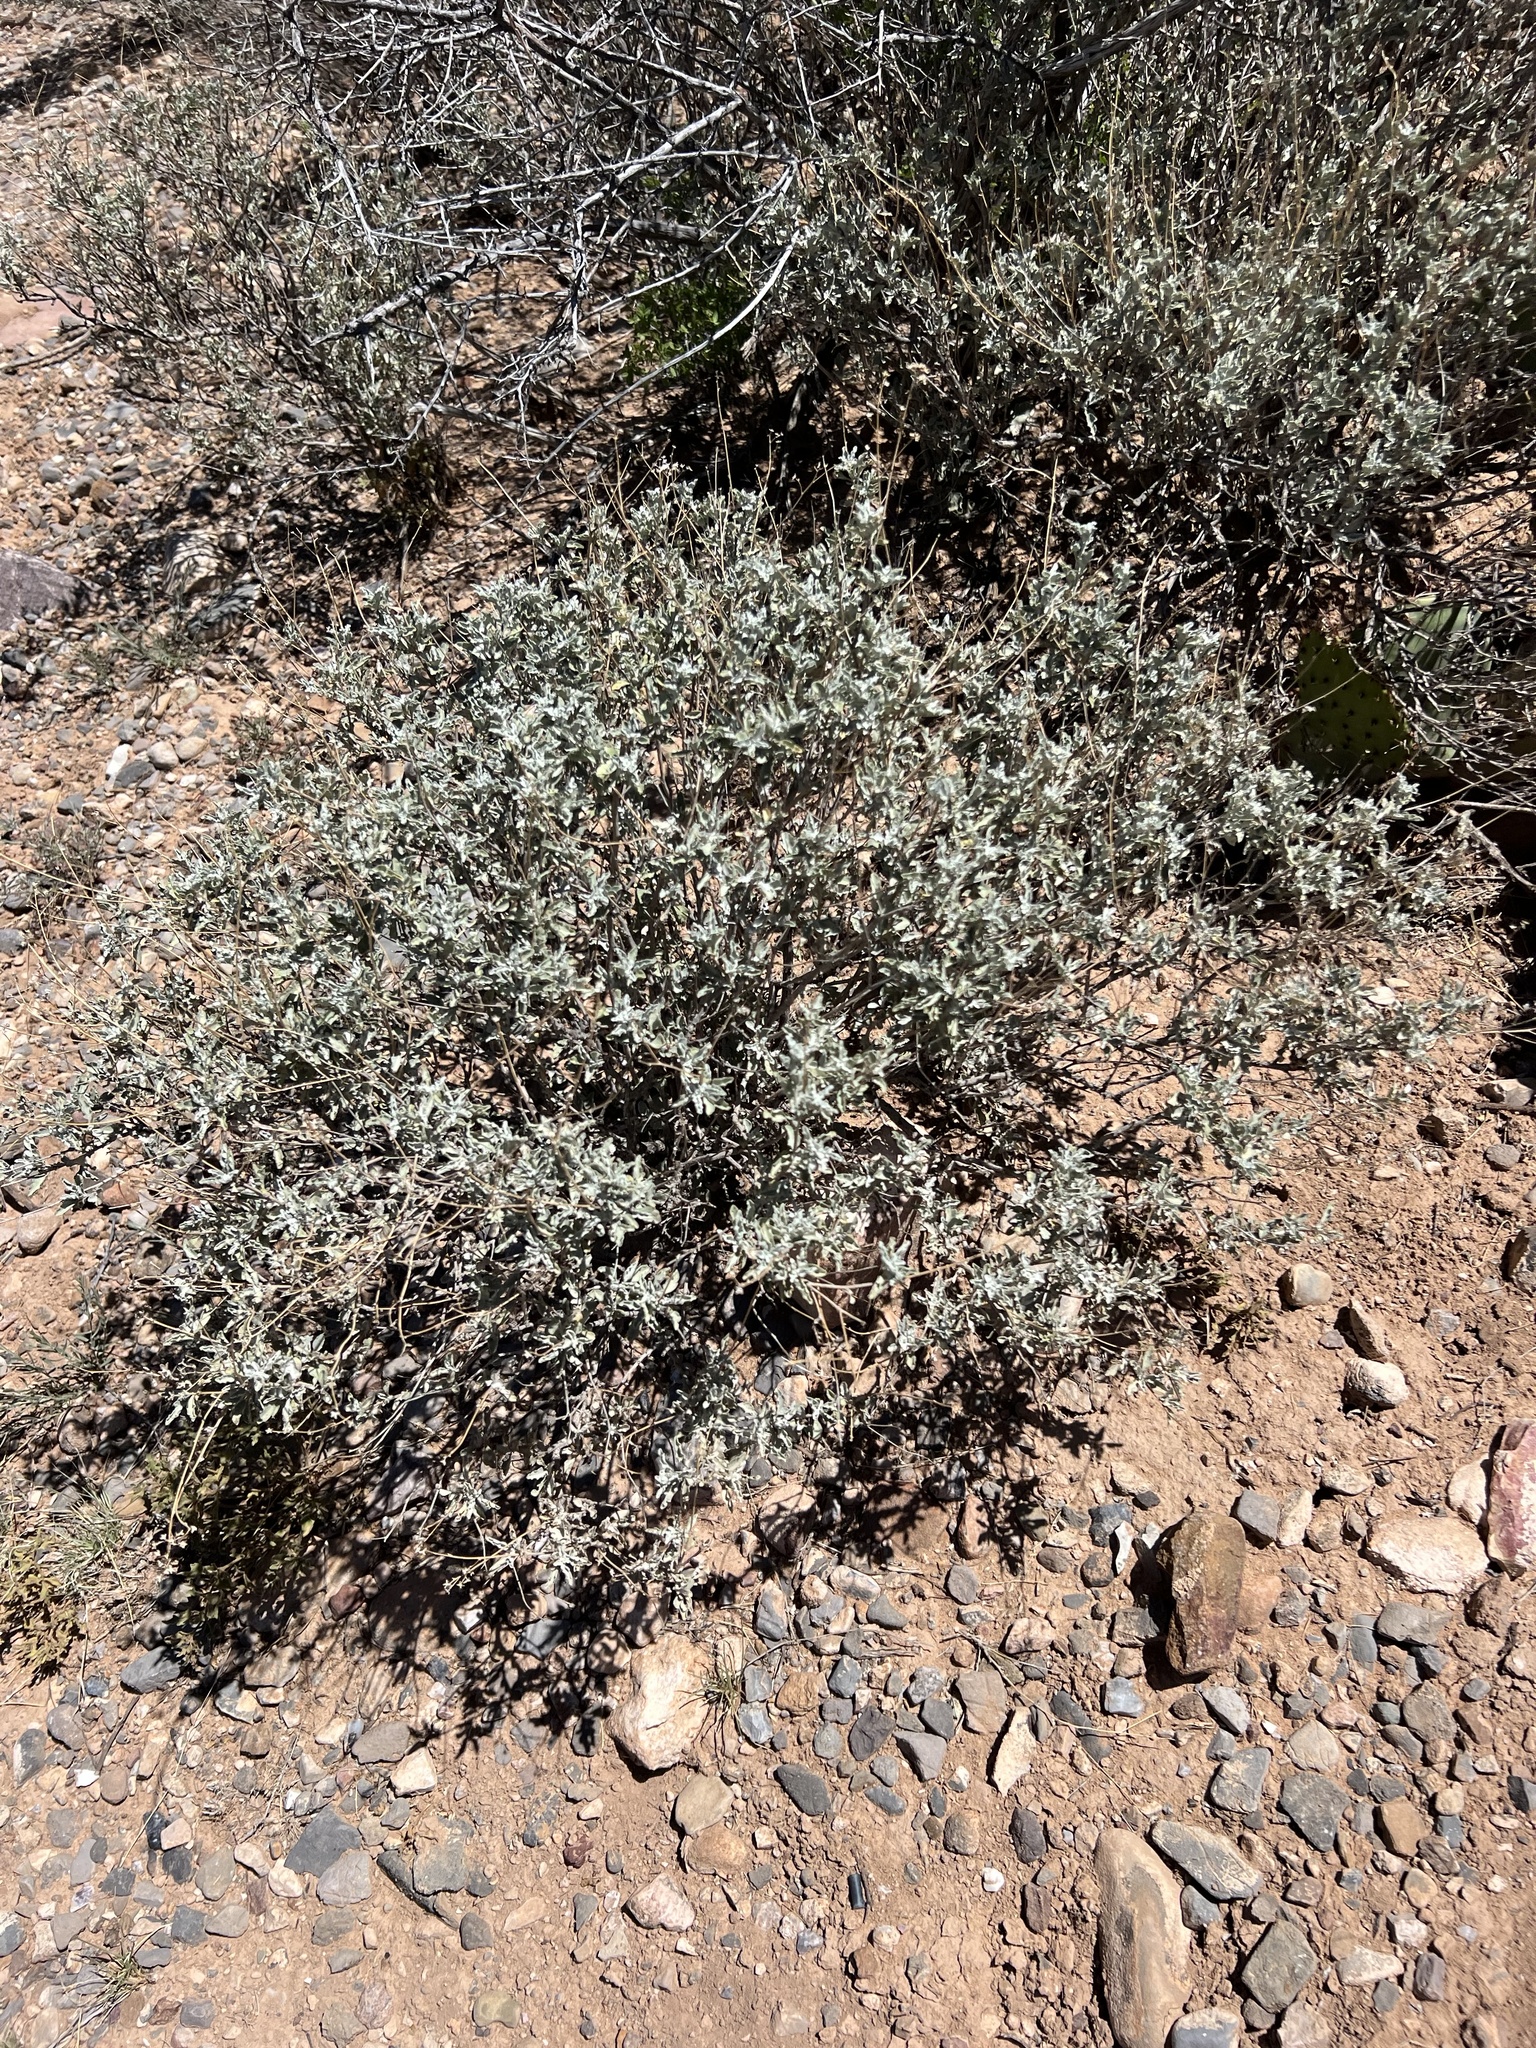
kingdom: Plantae
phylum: Tracheophyta
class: Magnoliopsida
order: Asterales
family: Asteraceae
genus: Parthenium
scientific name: Parthenium incanum
